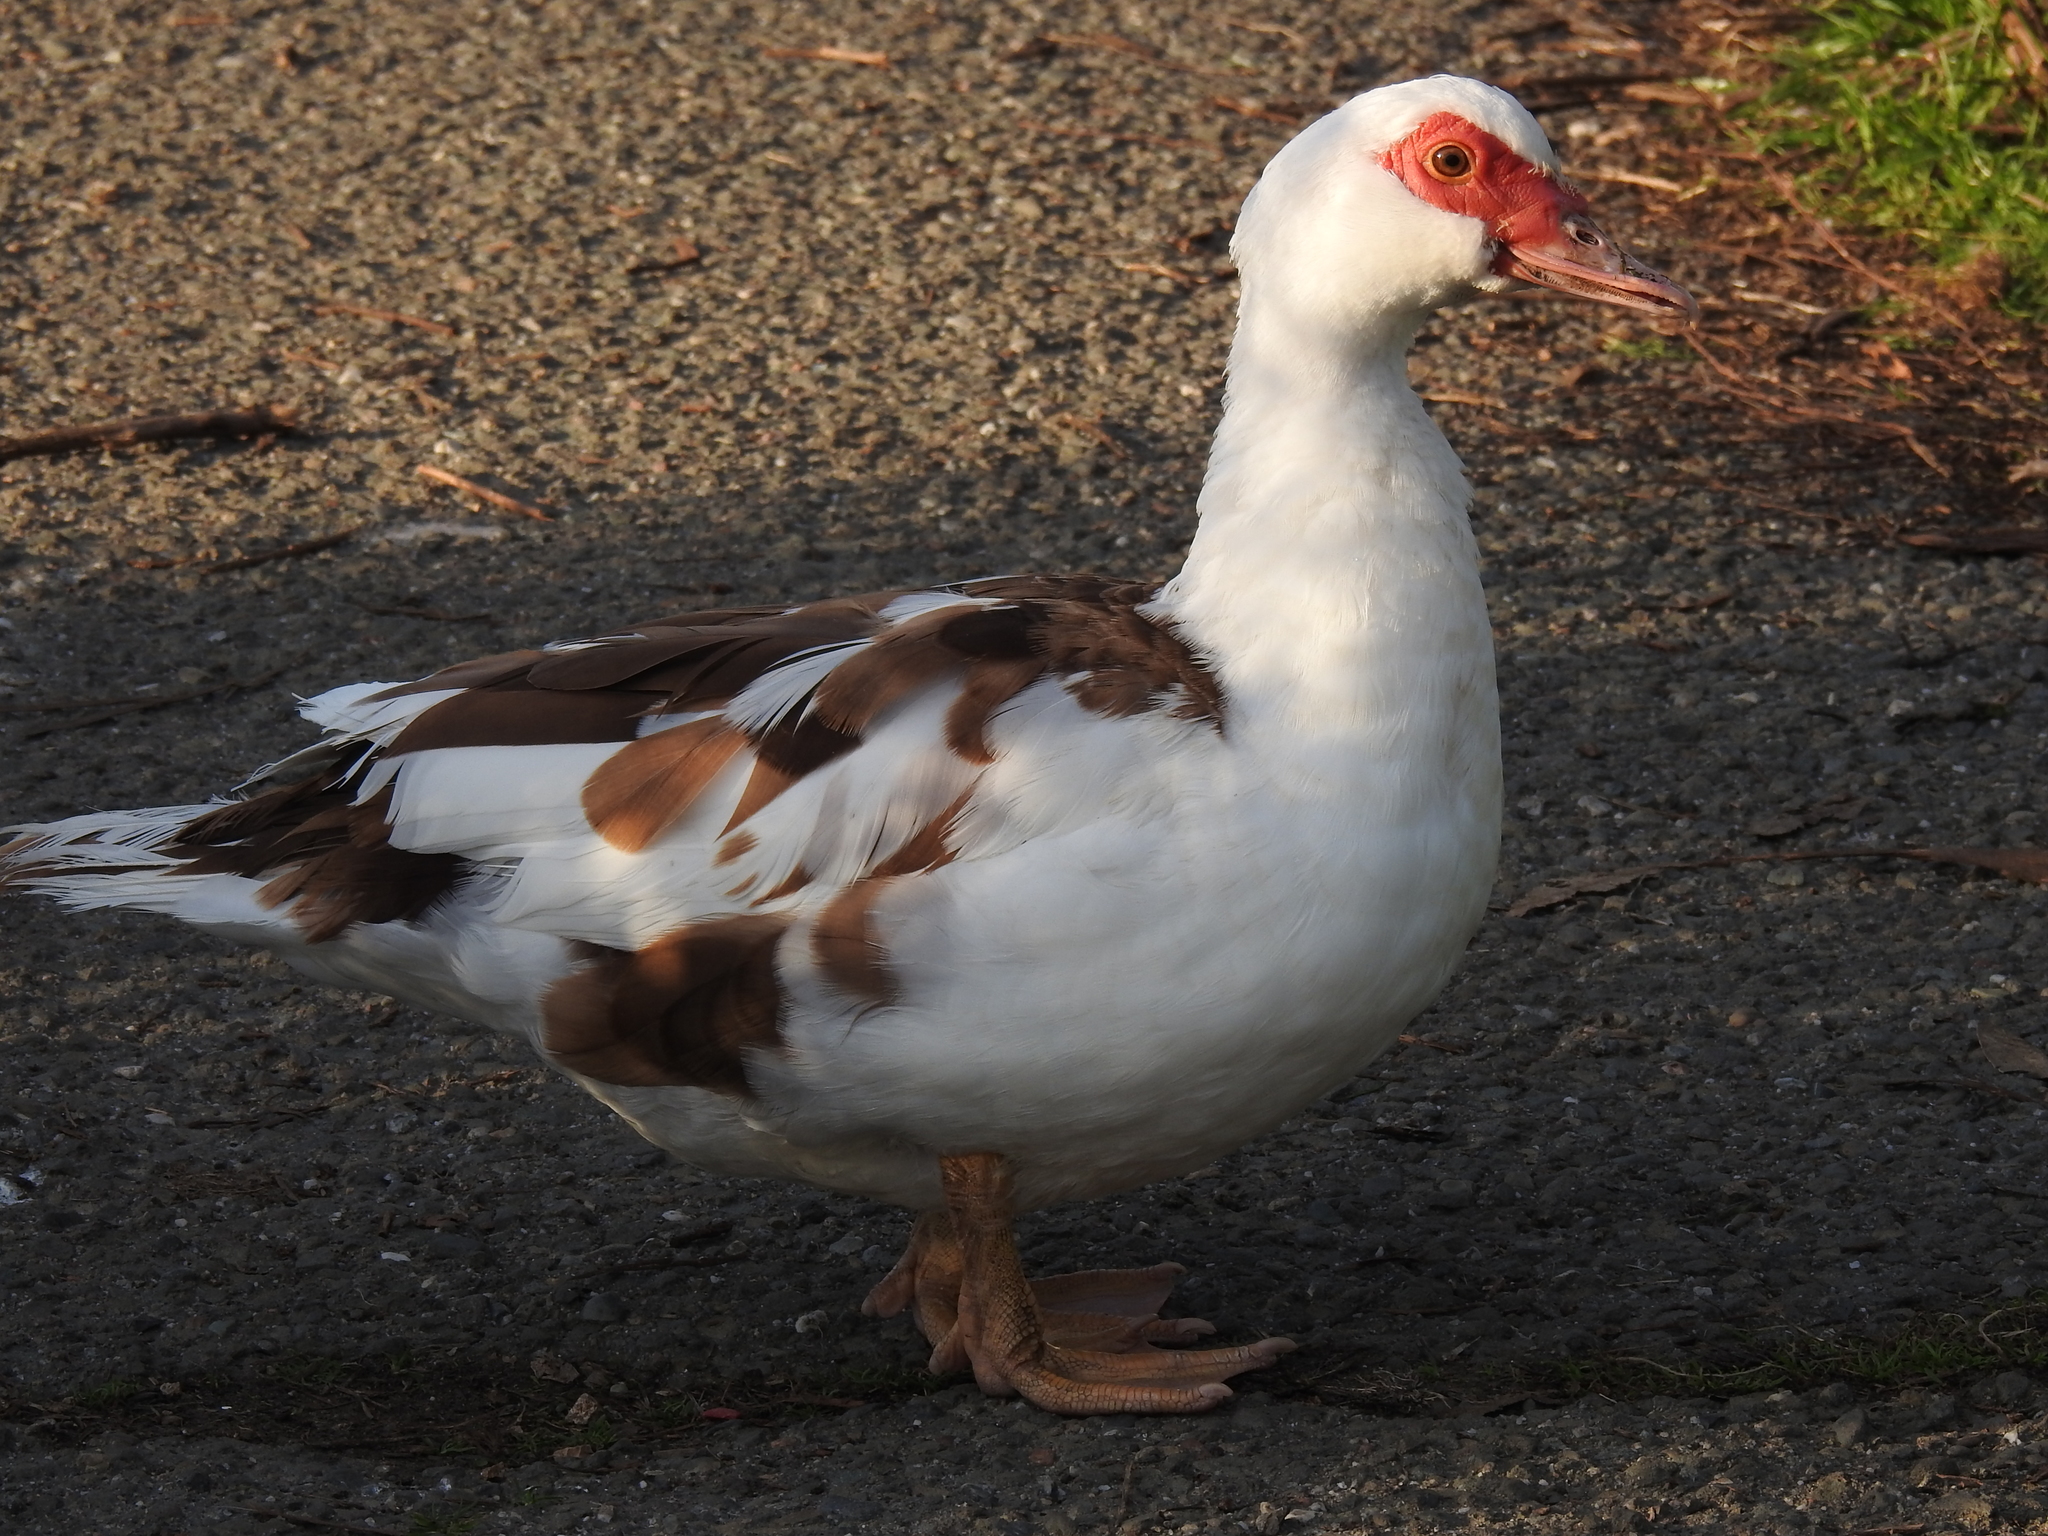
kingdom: Animalia
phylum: Chordata
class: Aves
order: Anseriformes
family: Anatidae
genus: Cairina
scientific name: Cairina moschata
